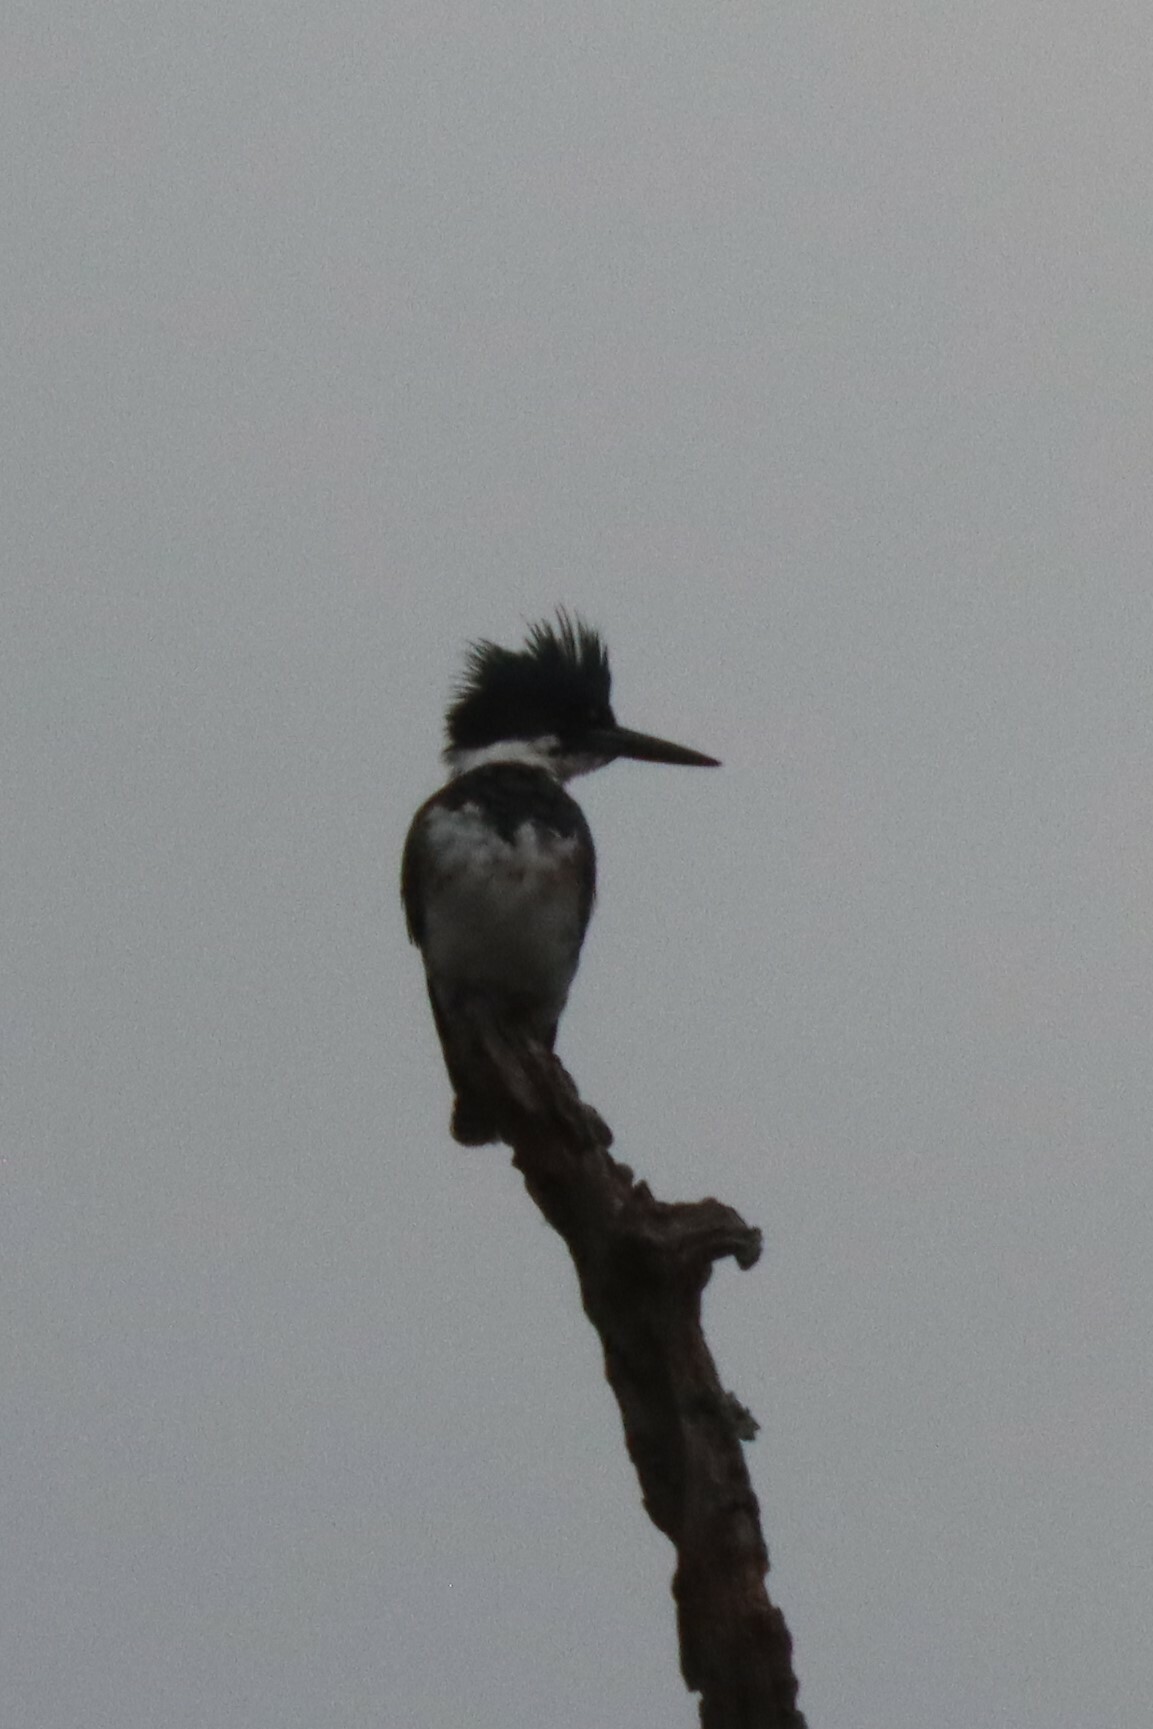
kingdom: Animalia
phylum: Chordata
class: Aves
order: Coraciiformes
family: Alcedinidae
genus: Megaceryle
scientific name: Megaceryle alcyon
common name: Belted kingfisher
